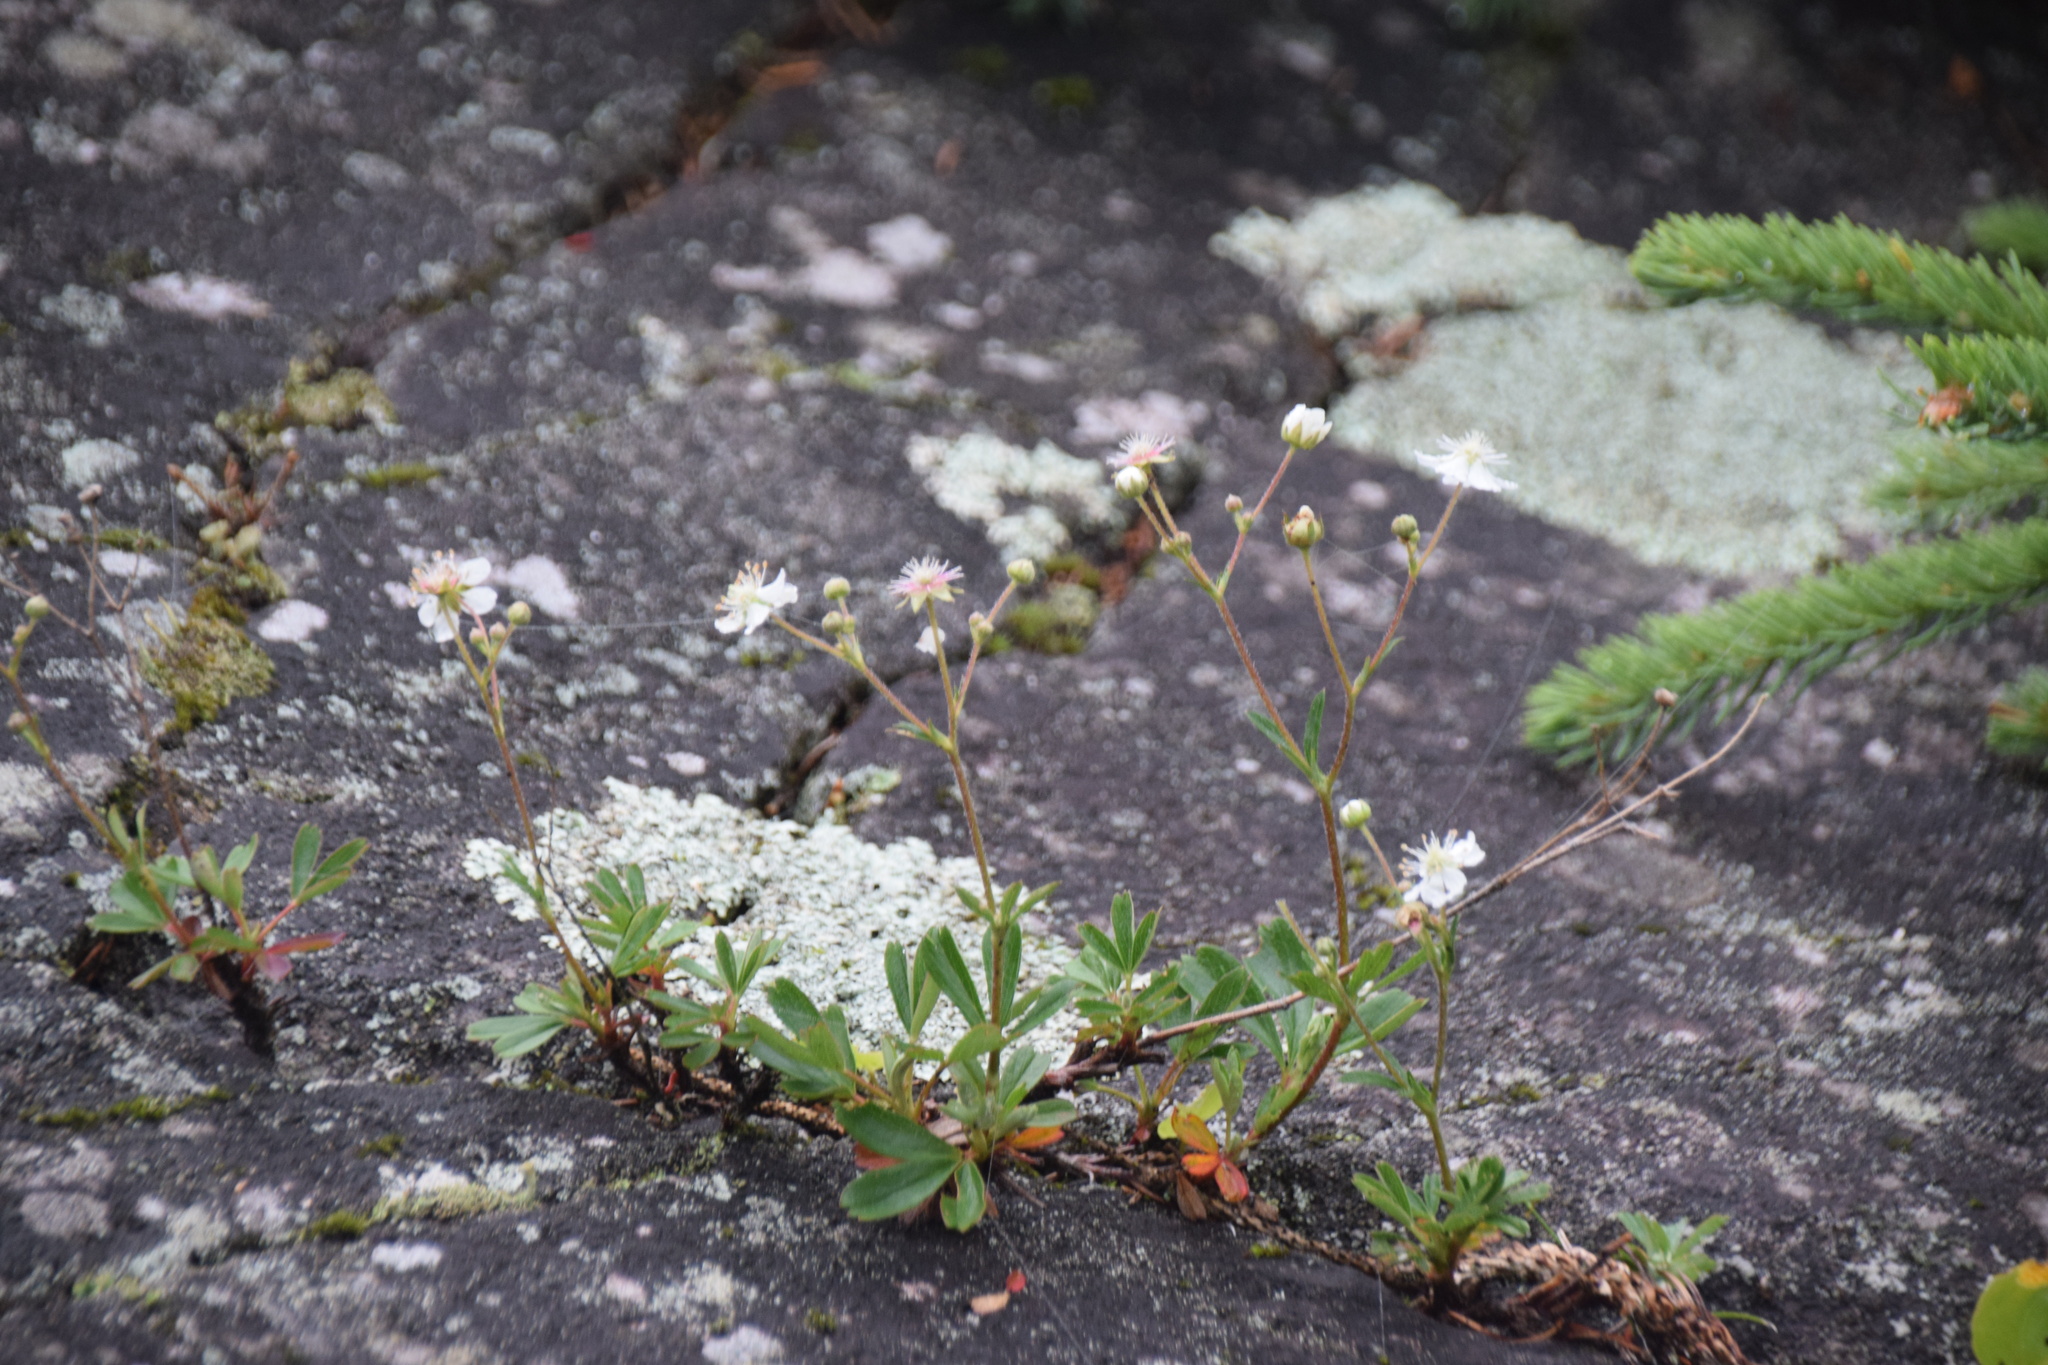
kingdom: Plantae
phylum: Tracheophyta
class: Magnoliopsida
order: Rosales
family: Rosaceae
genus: Sibbaldia
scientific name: Sibbaldia tridentata
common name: Three-toothed cinquefoil
